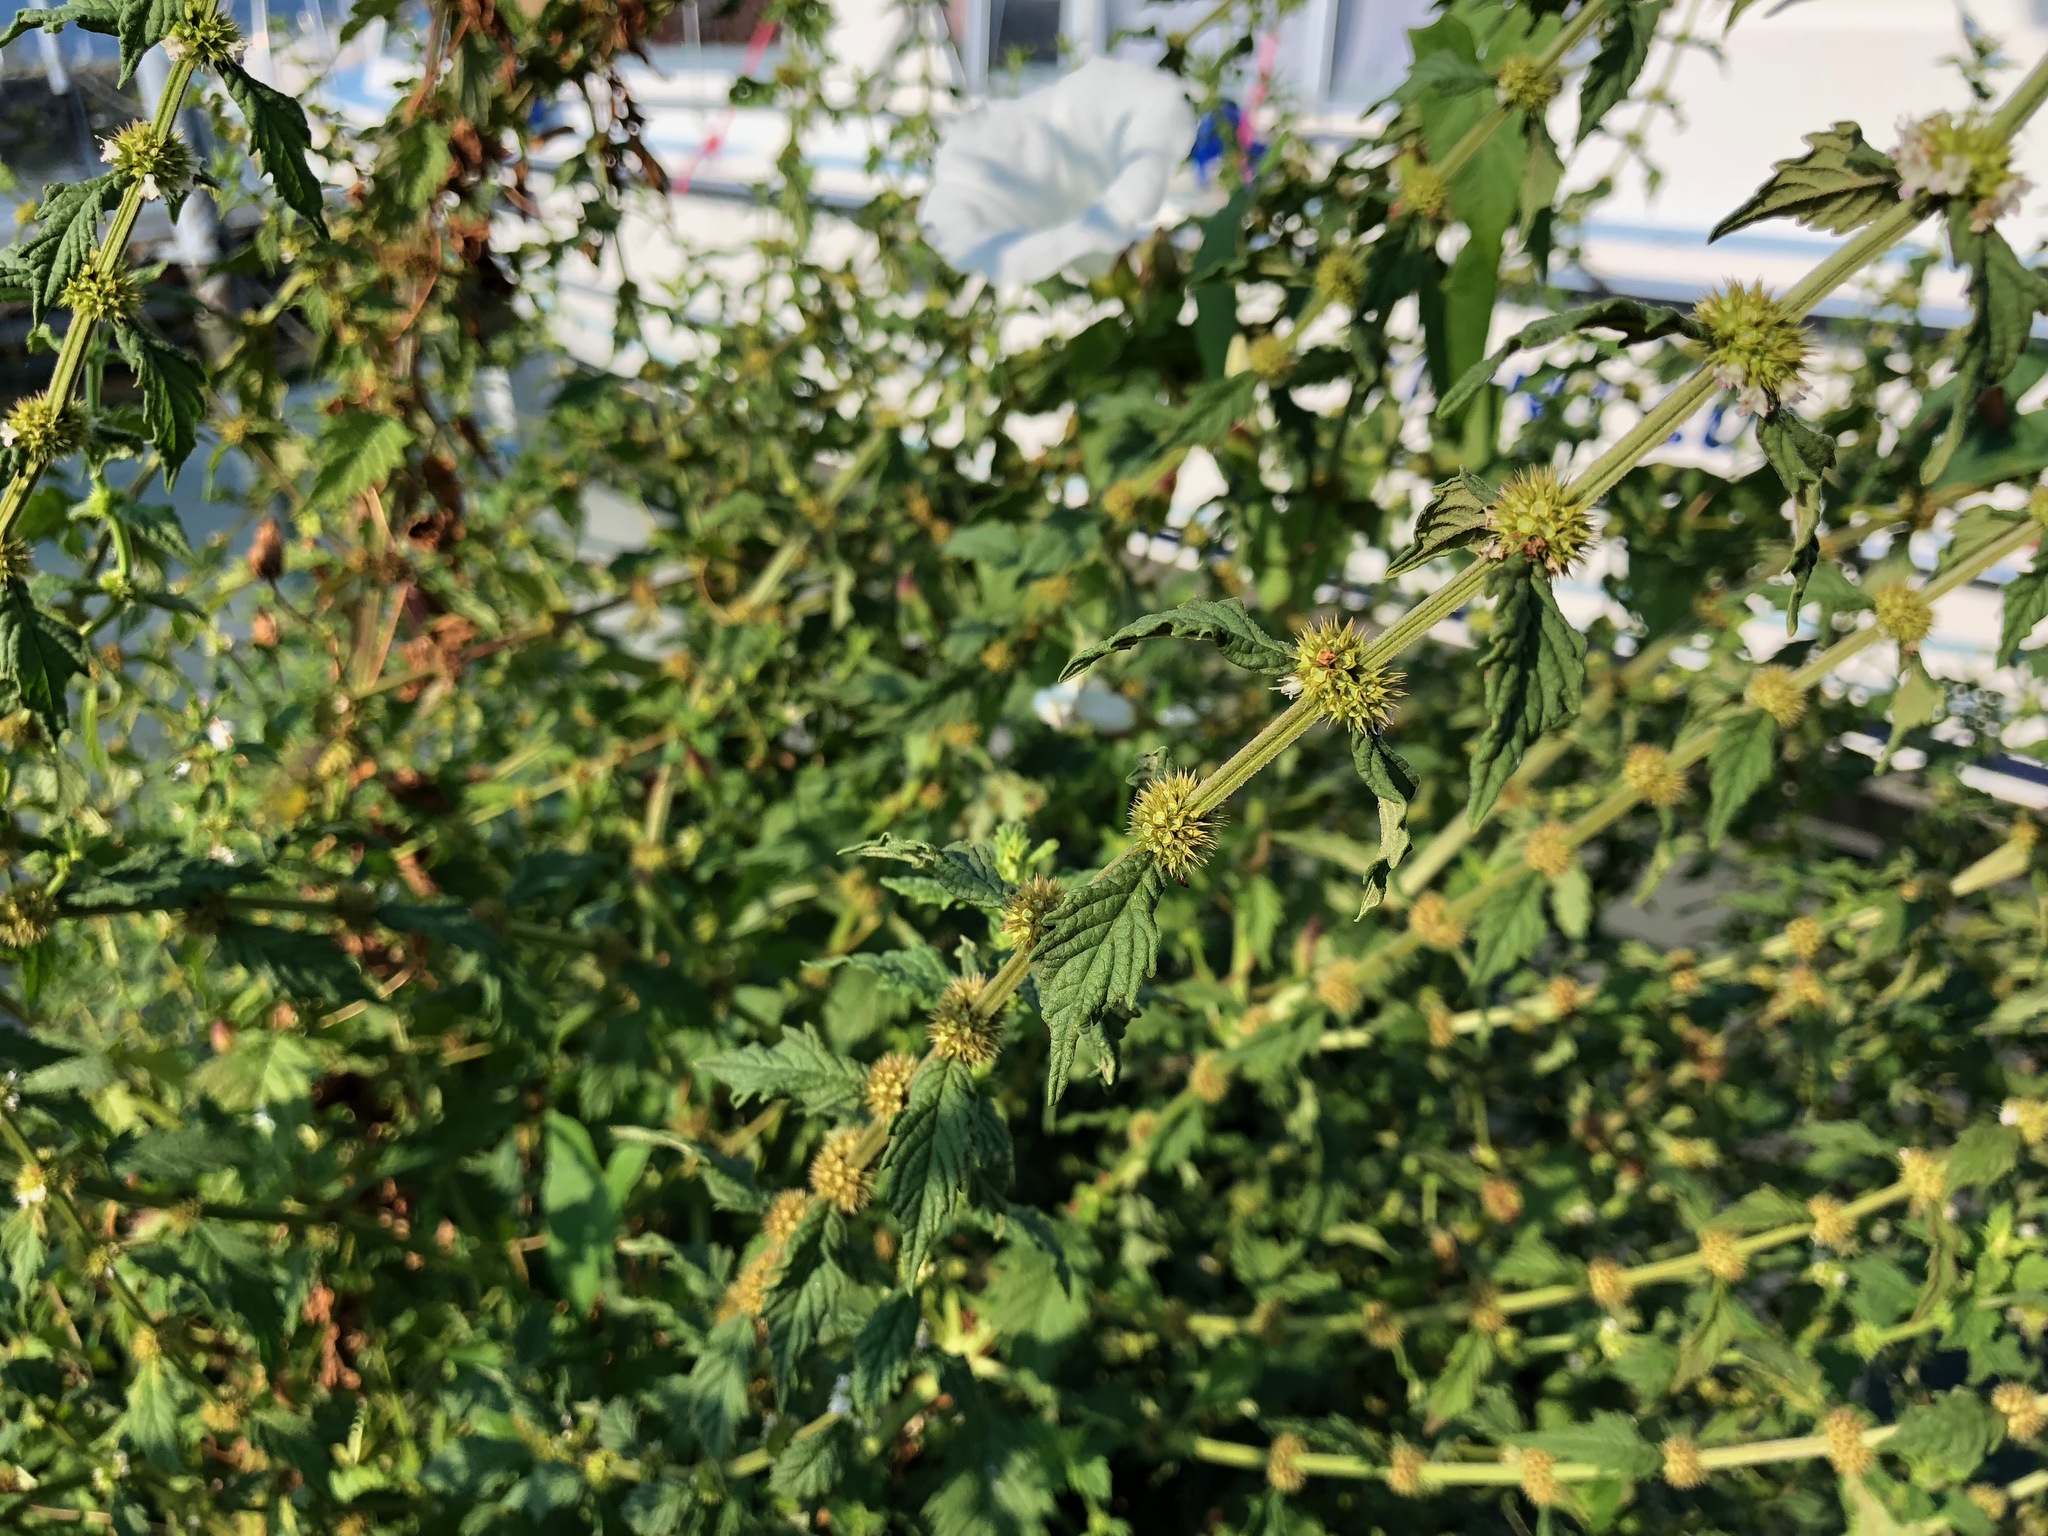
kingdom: Plantae
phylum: Tracheophyta
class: Magnoliopsida
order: Lamiales
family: Lamiaceae
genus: Lycopus
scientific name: Lycopus europaeus
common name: European bugleweed
